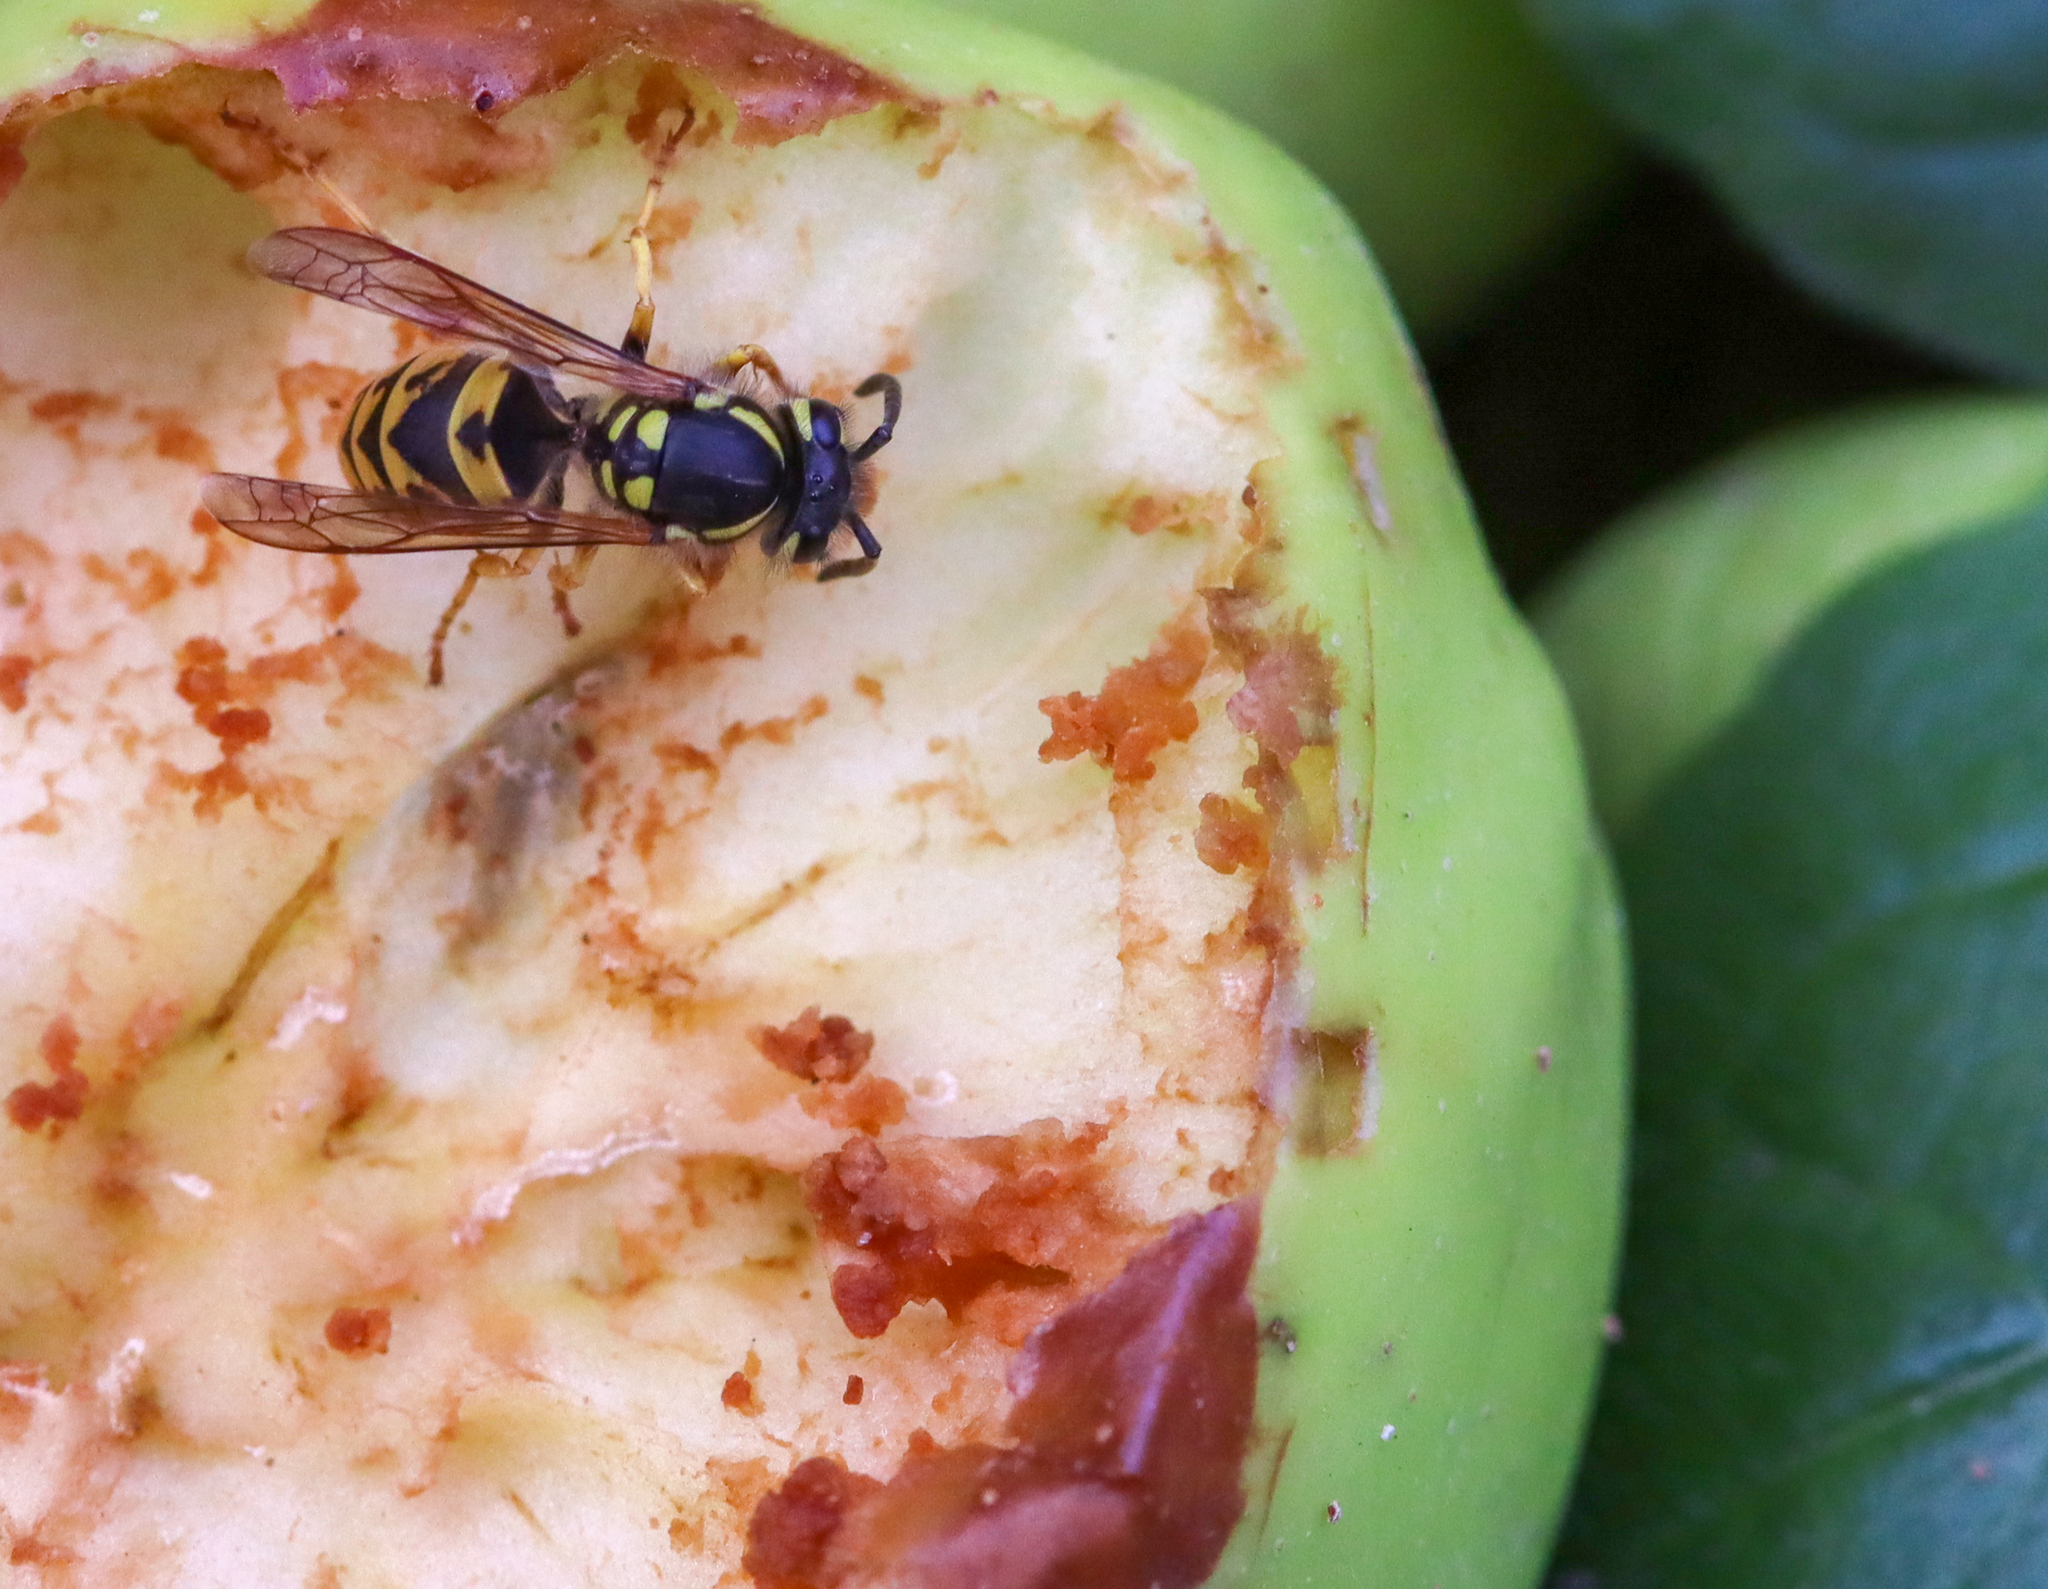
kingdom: Animalia
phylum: Arthropoda
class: Insecta
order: Hymenoptera
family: Vespidae
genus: Vespula
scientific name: Vespula germanica
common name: German wasp
